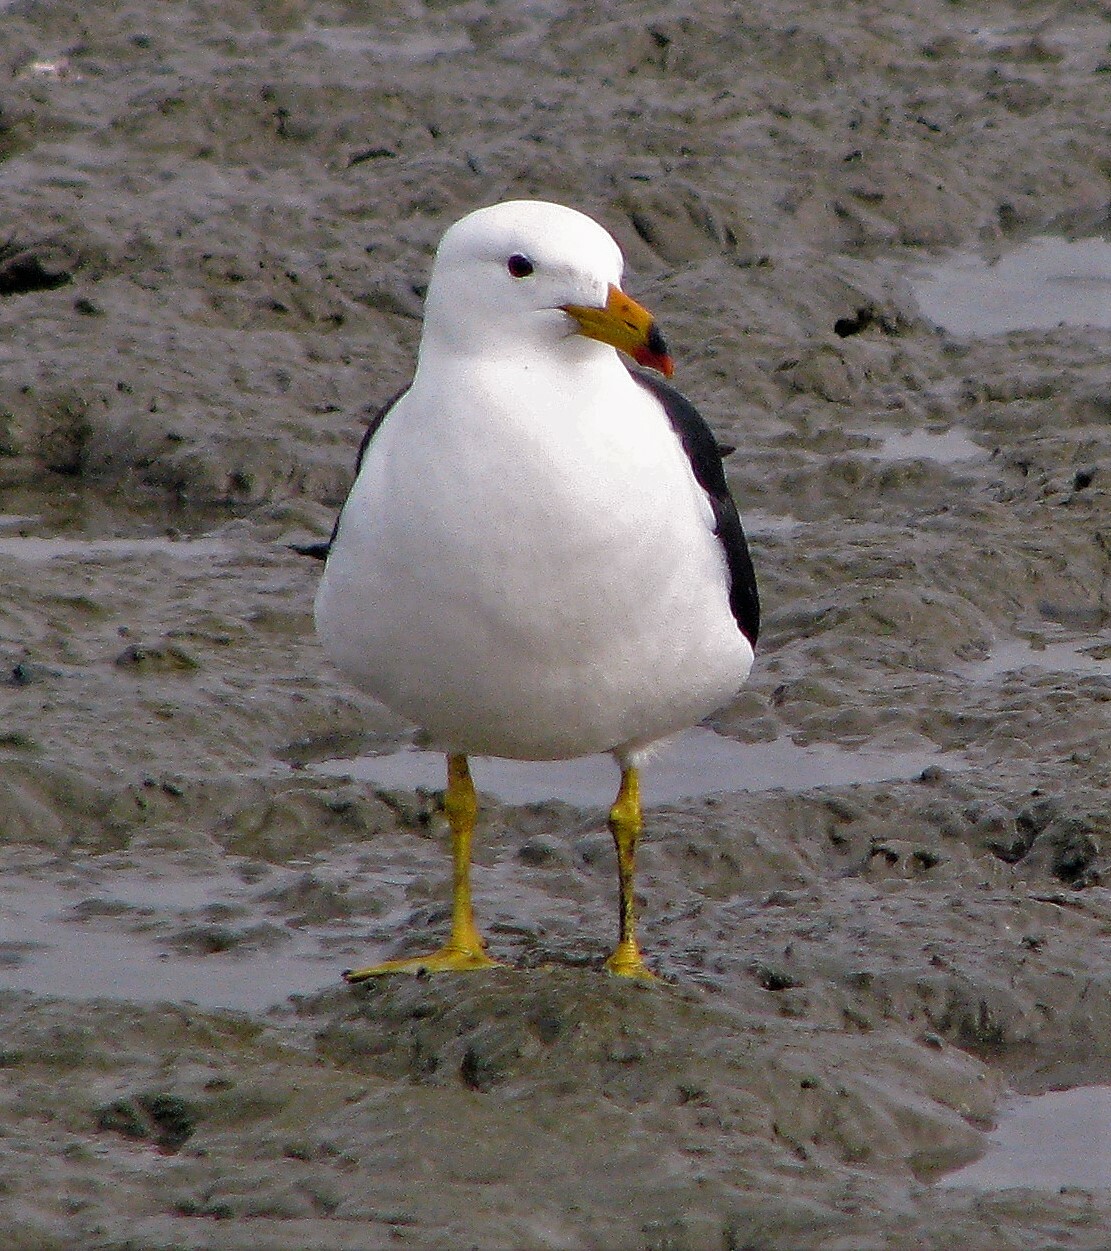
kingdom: Animalia
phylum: Chordata
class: Aves
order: Charadriiformes
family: Laridae
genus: Larus
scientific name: Larus atlanticus
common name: Olrog's gull
